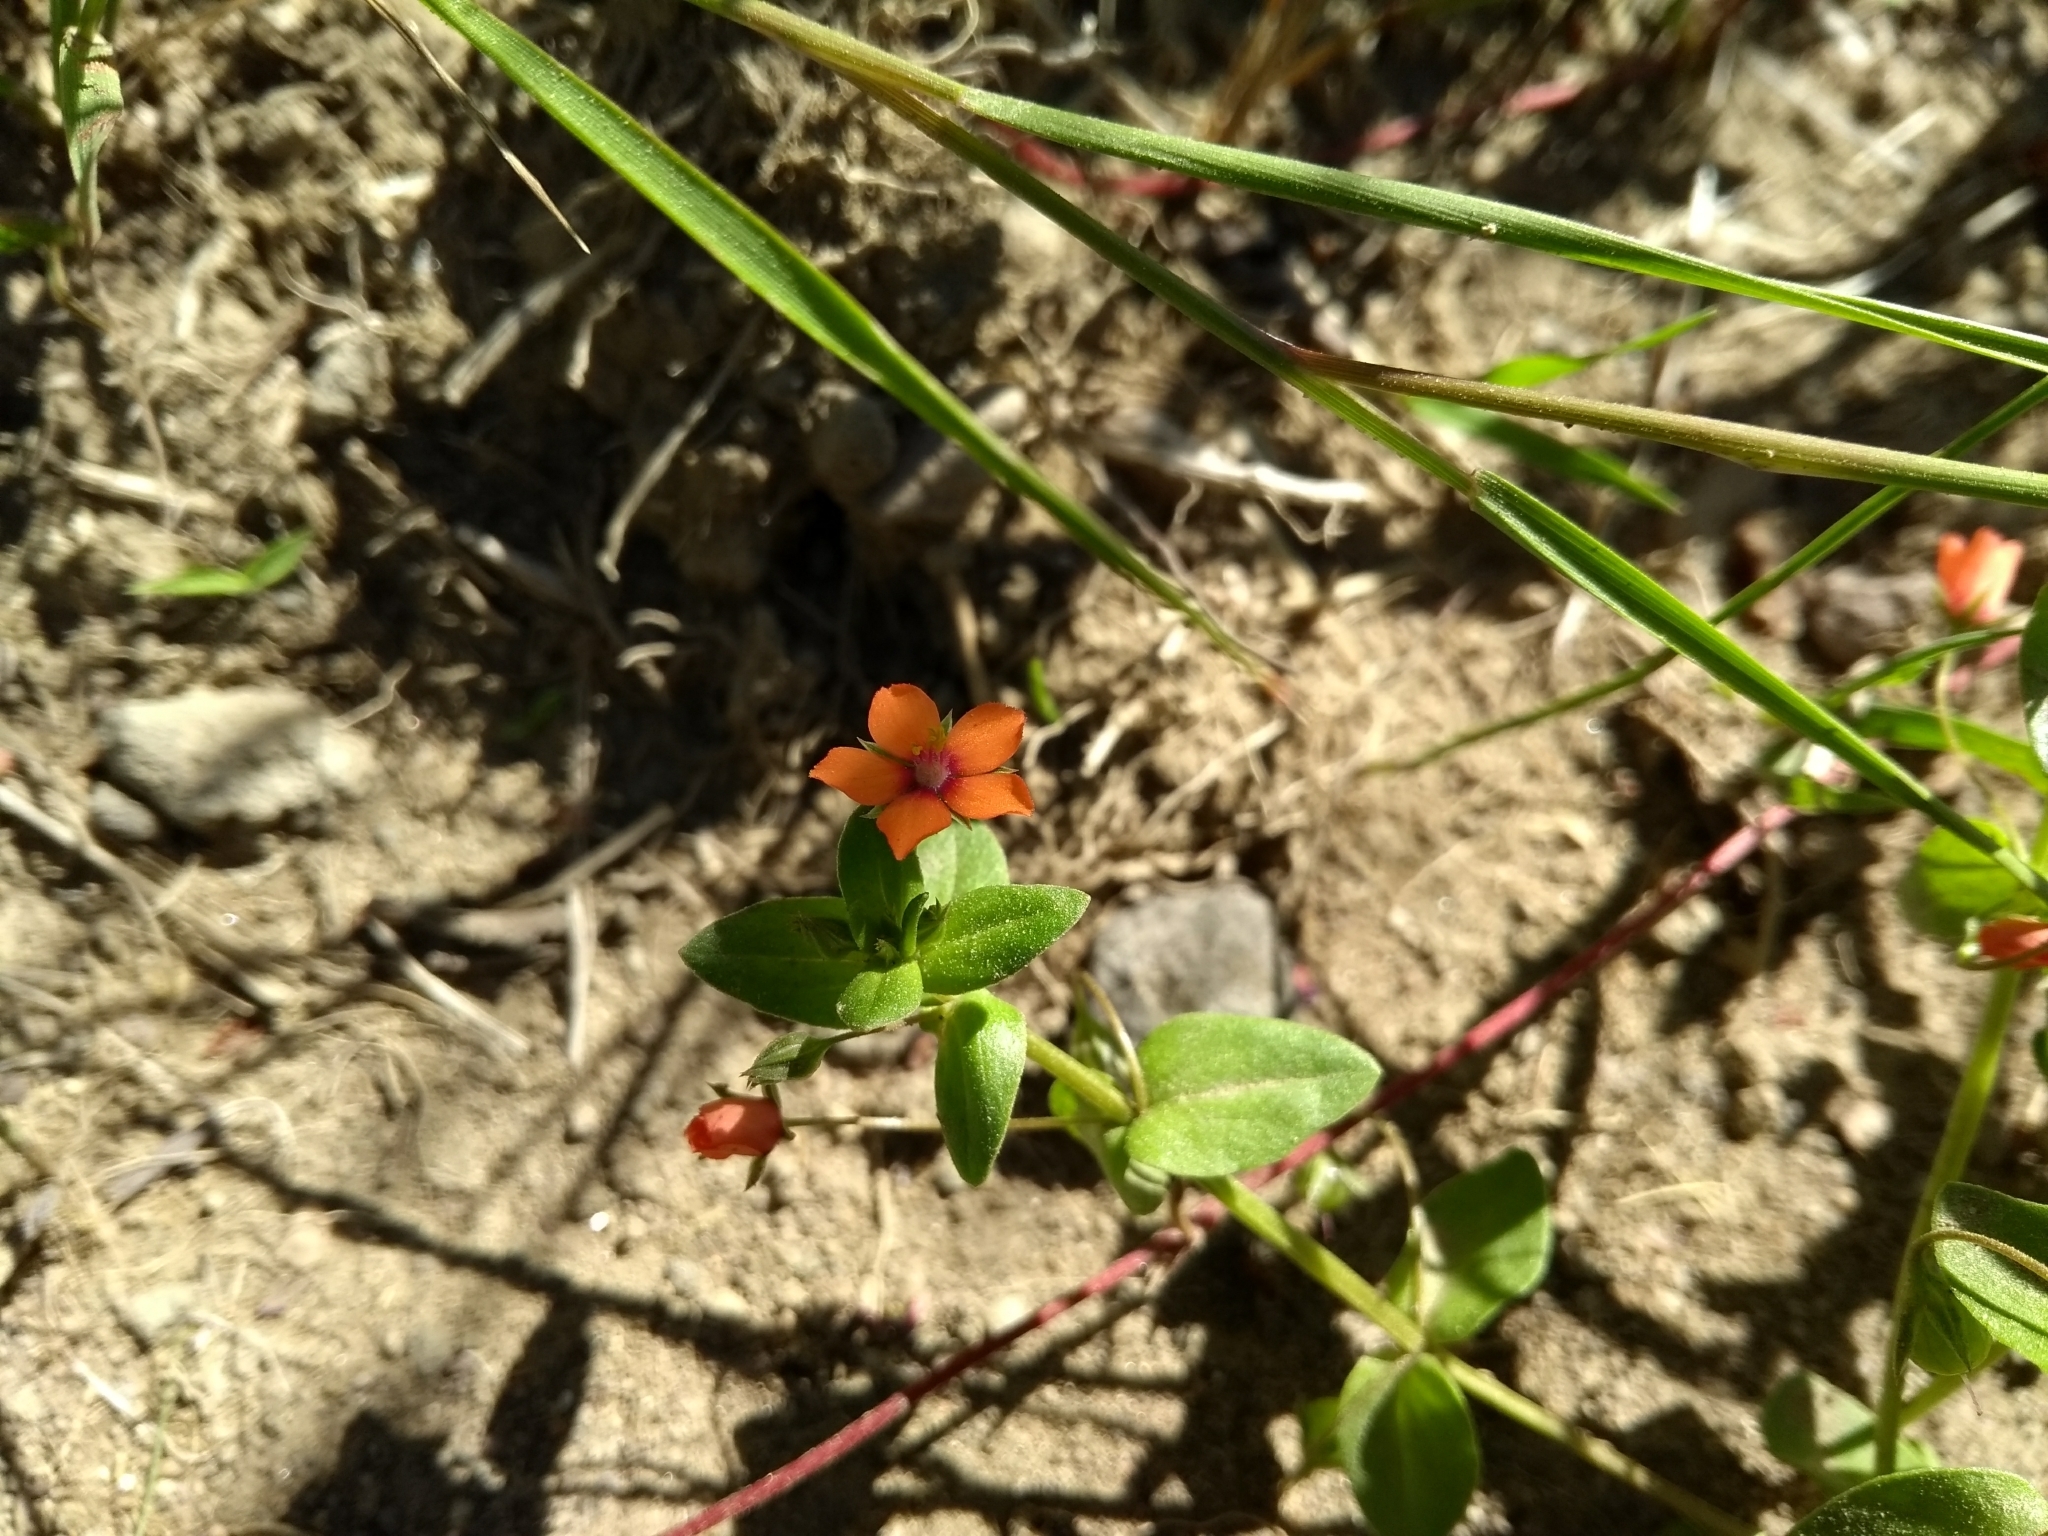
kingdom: Plantae
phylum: Tracheophyta
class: Magnoliopsida
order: Ericales
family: Primulaceae
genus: Lysimachia
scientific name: Lysimachia arvensis
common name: Scarlet pimpernel
